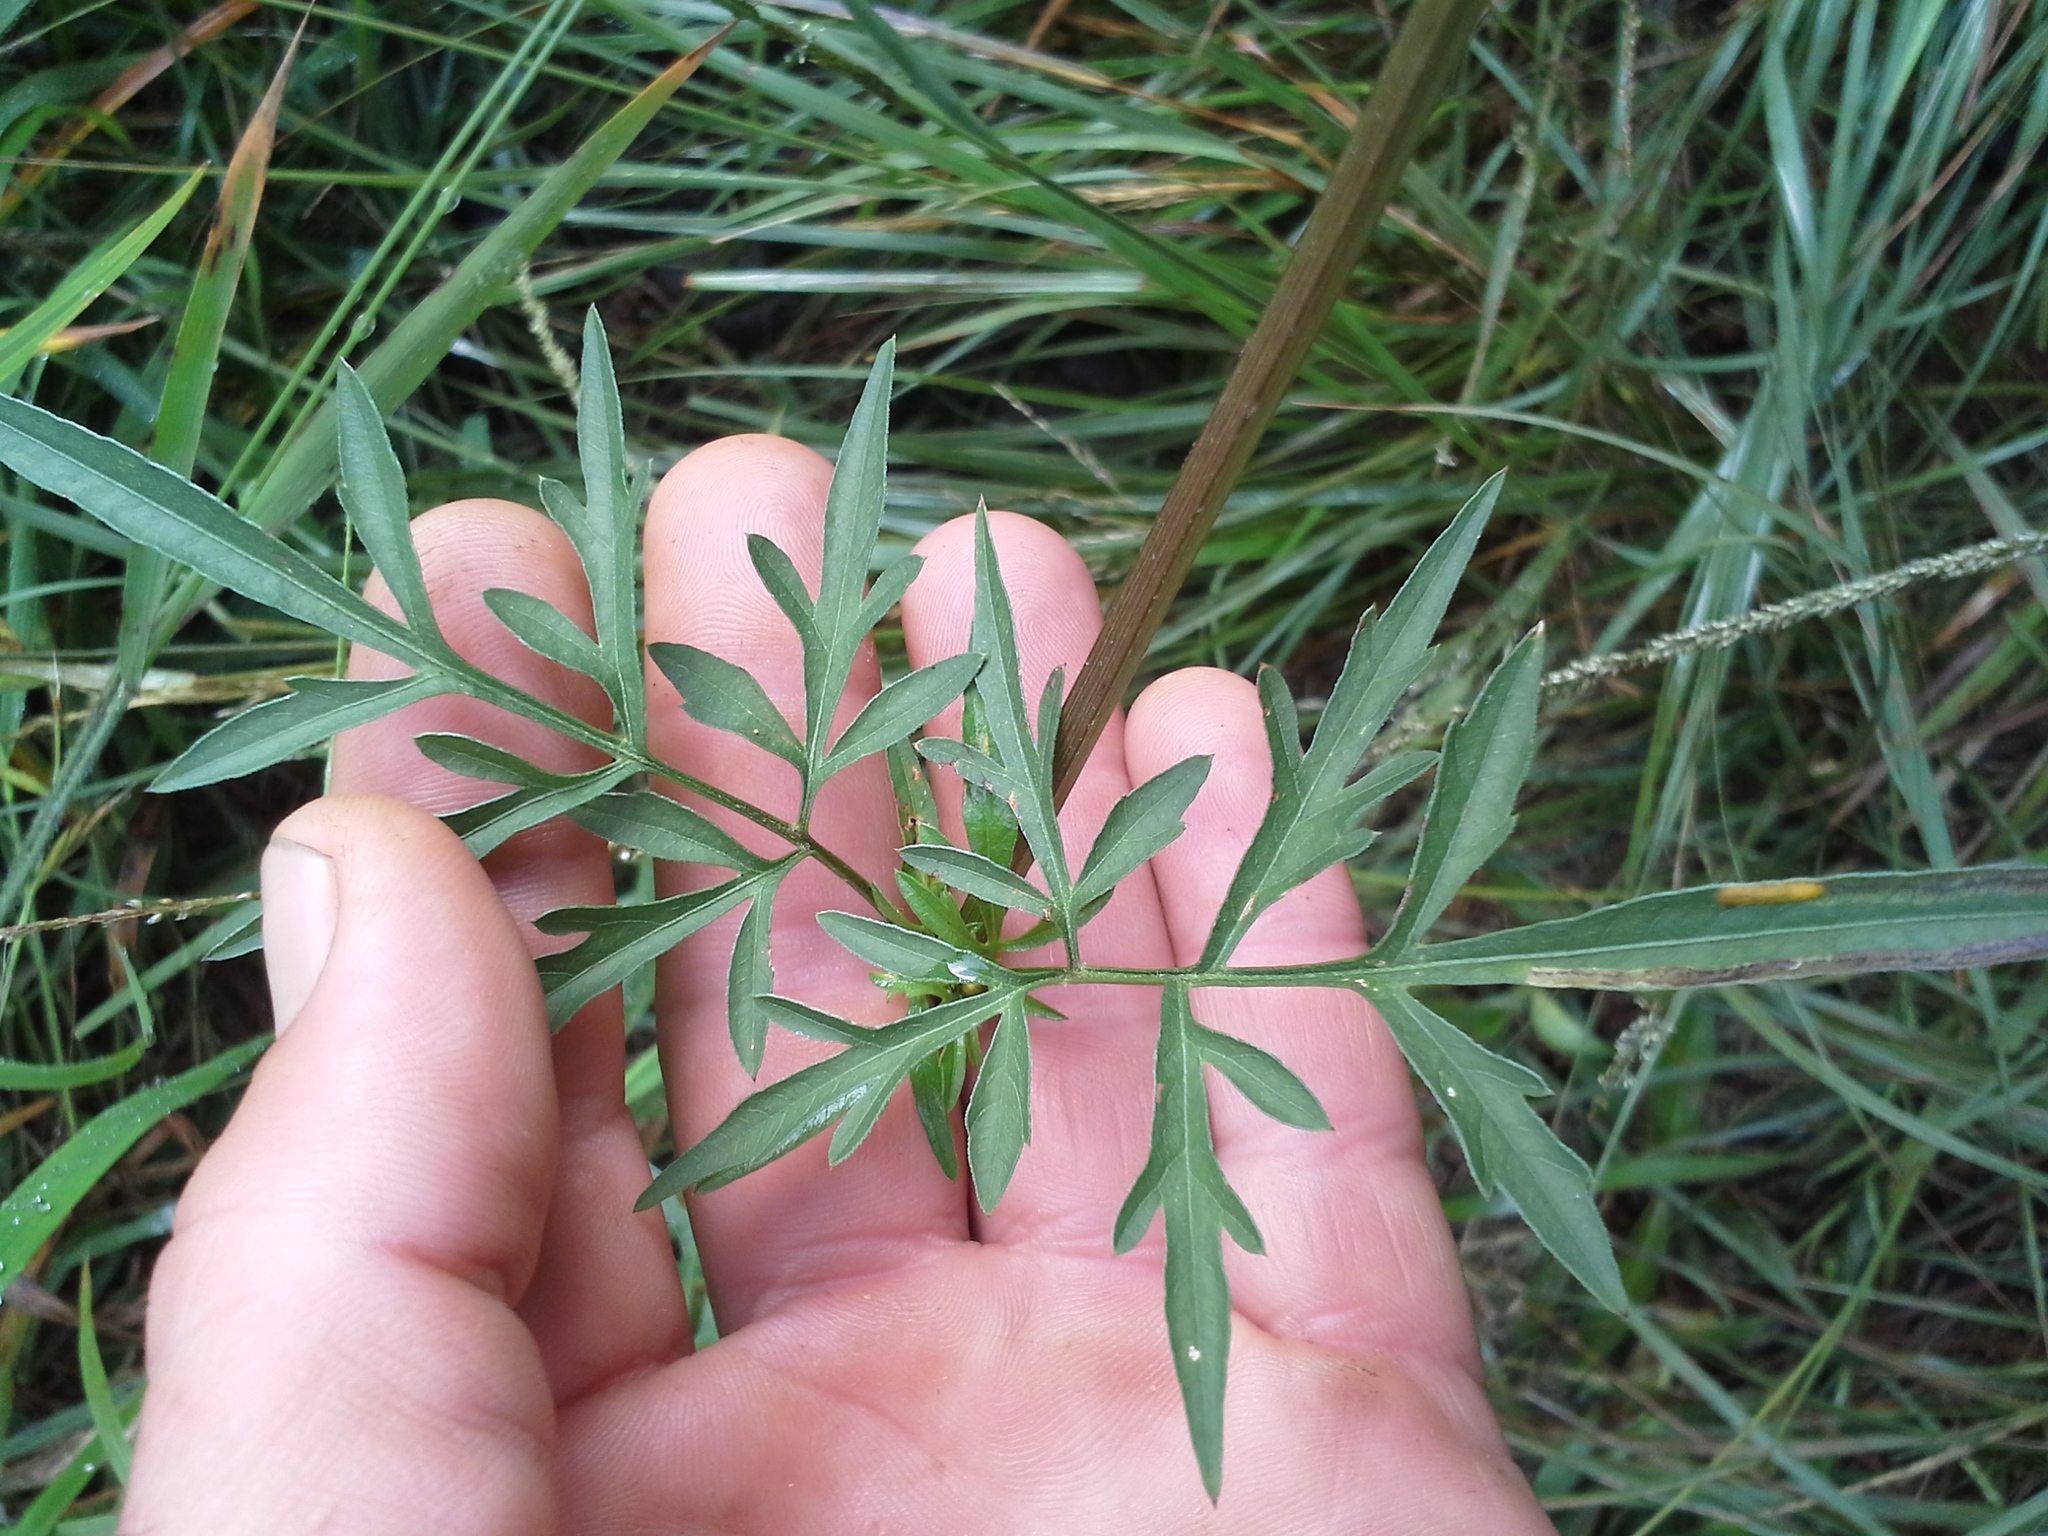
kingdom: Plantae
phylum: Tracheophyta
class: Magnoliopsida
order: Asterales
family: Asteraceae
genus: Bidens
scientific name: Bidens bipinnata
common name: Spanish-needles
